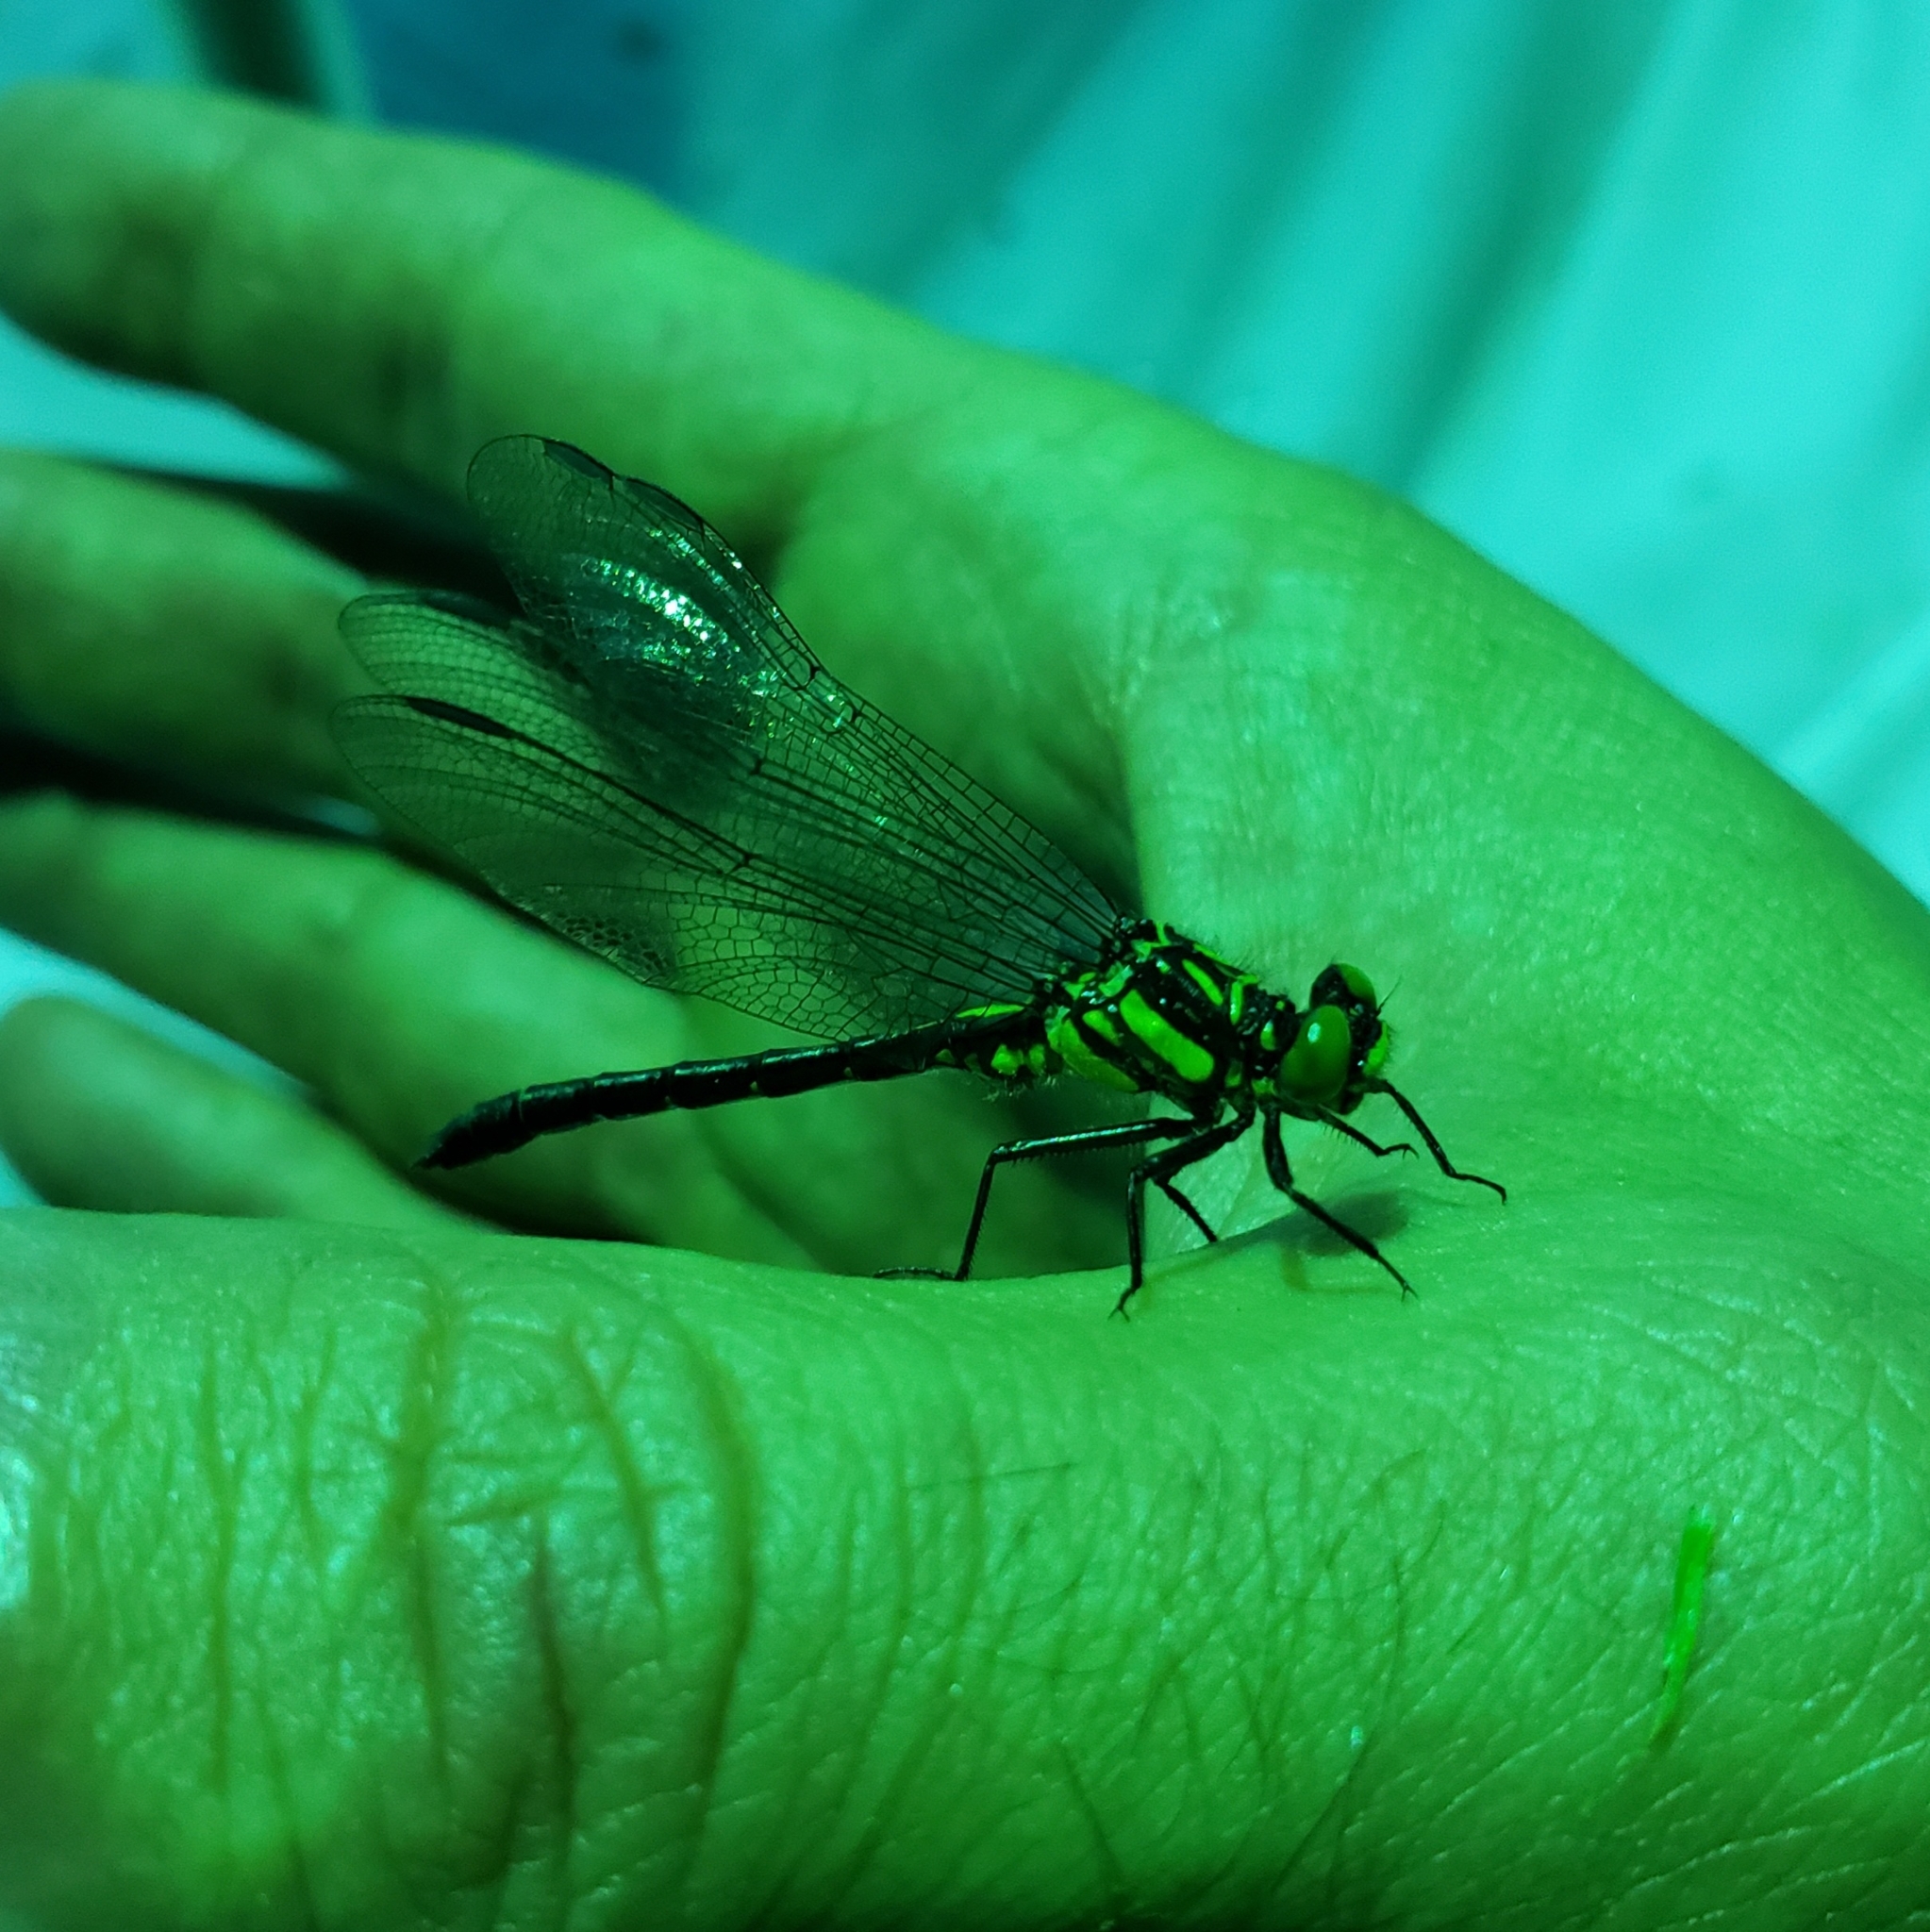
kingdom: Animalia
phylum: Arthropoda
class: Insecta
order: Odonata
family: Gomphidae
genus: Lanthus
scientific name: Lanthus parvulus
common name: Northern pygmy clubtail
